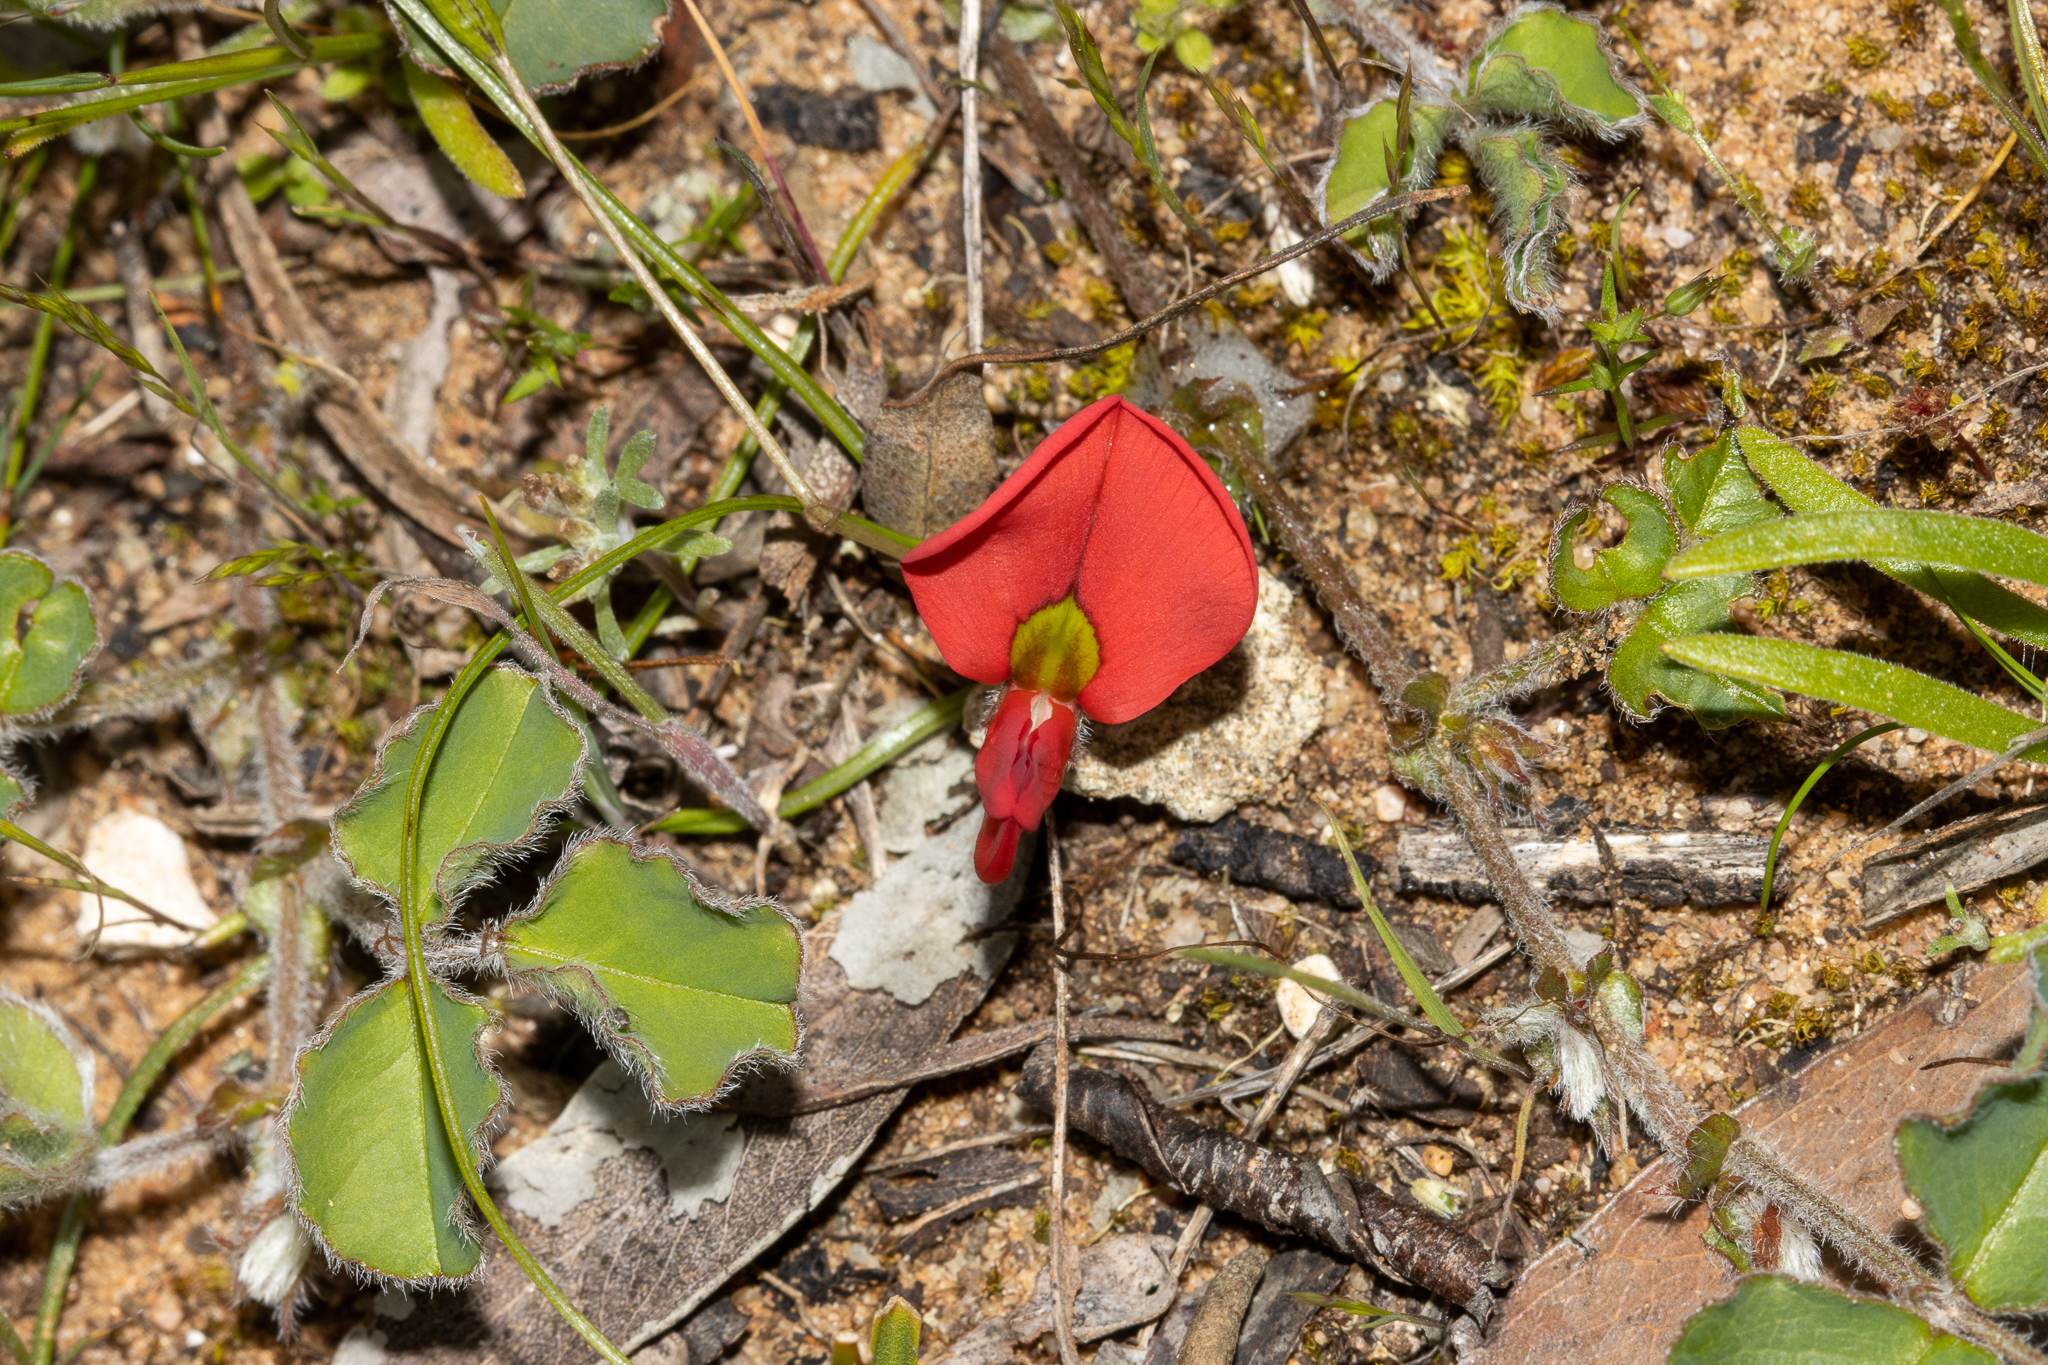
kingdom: Plantae
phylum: Tracheophyta
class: Magnoliopsida
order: Fabales
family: Fabaceae
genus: Kennedia
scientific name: Kennedia prostrata
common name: Running-postman
